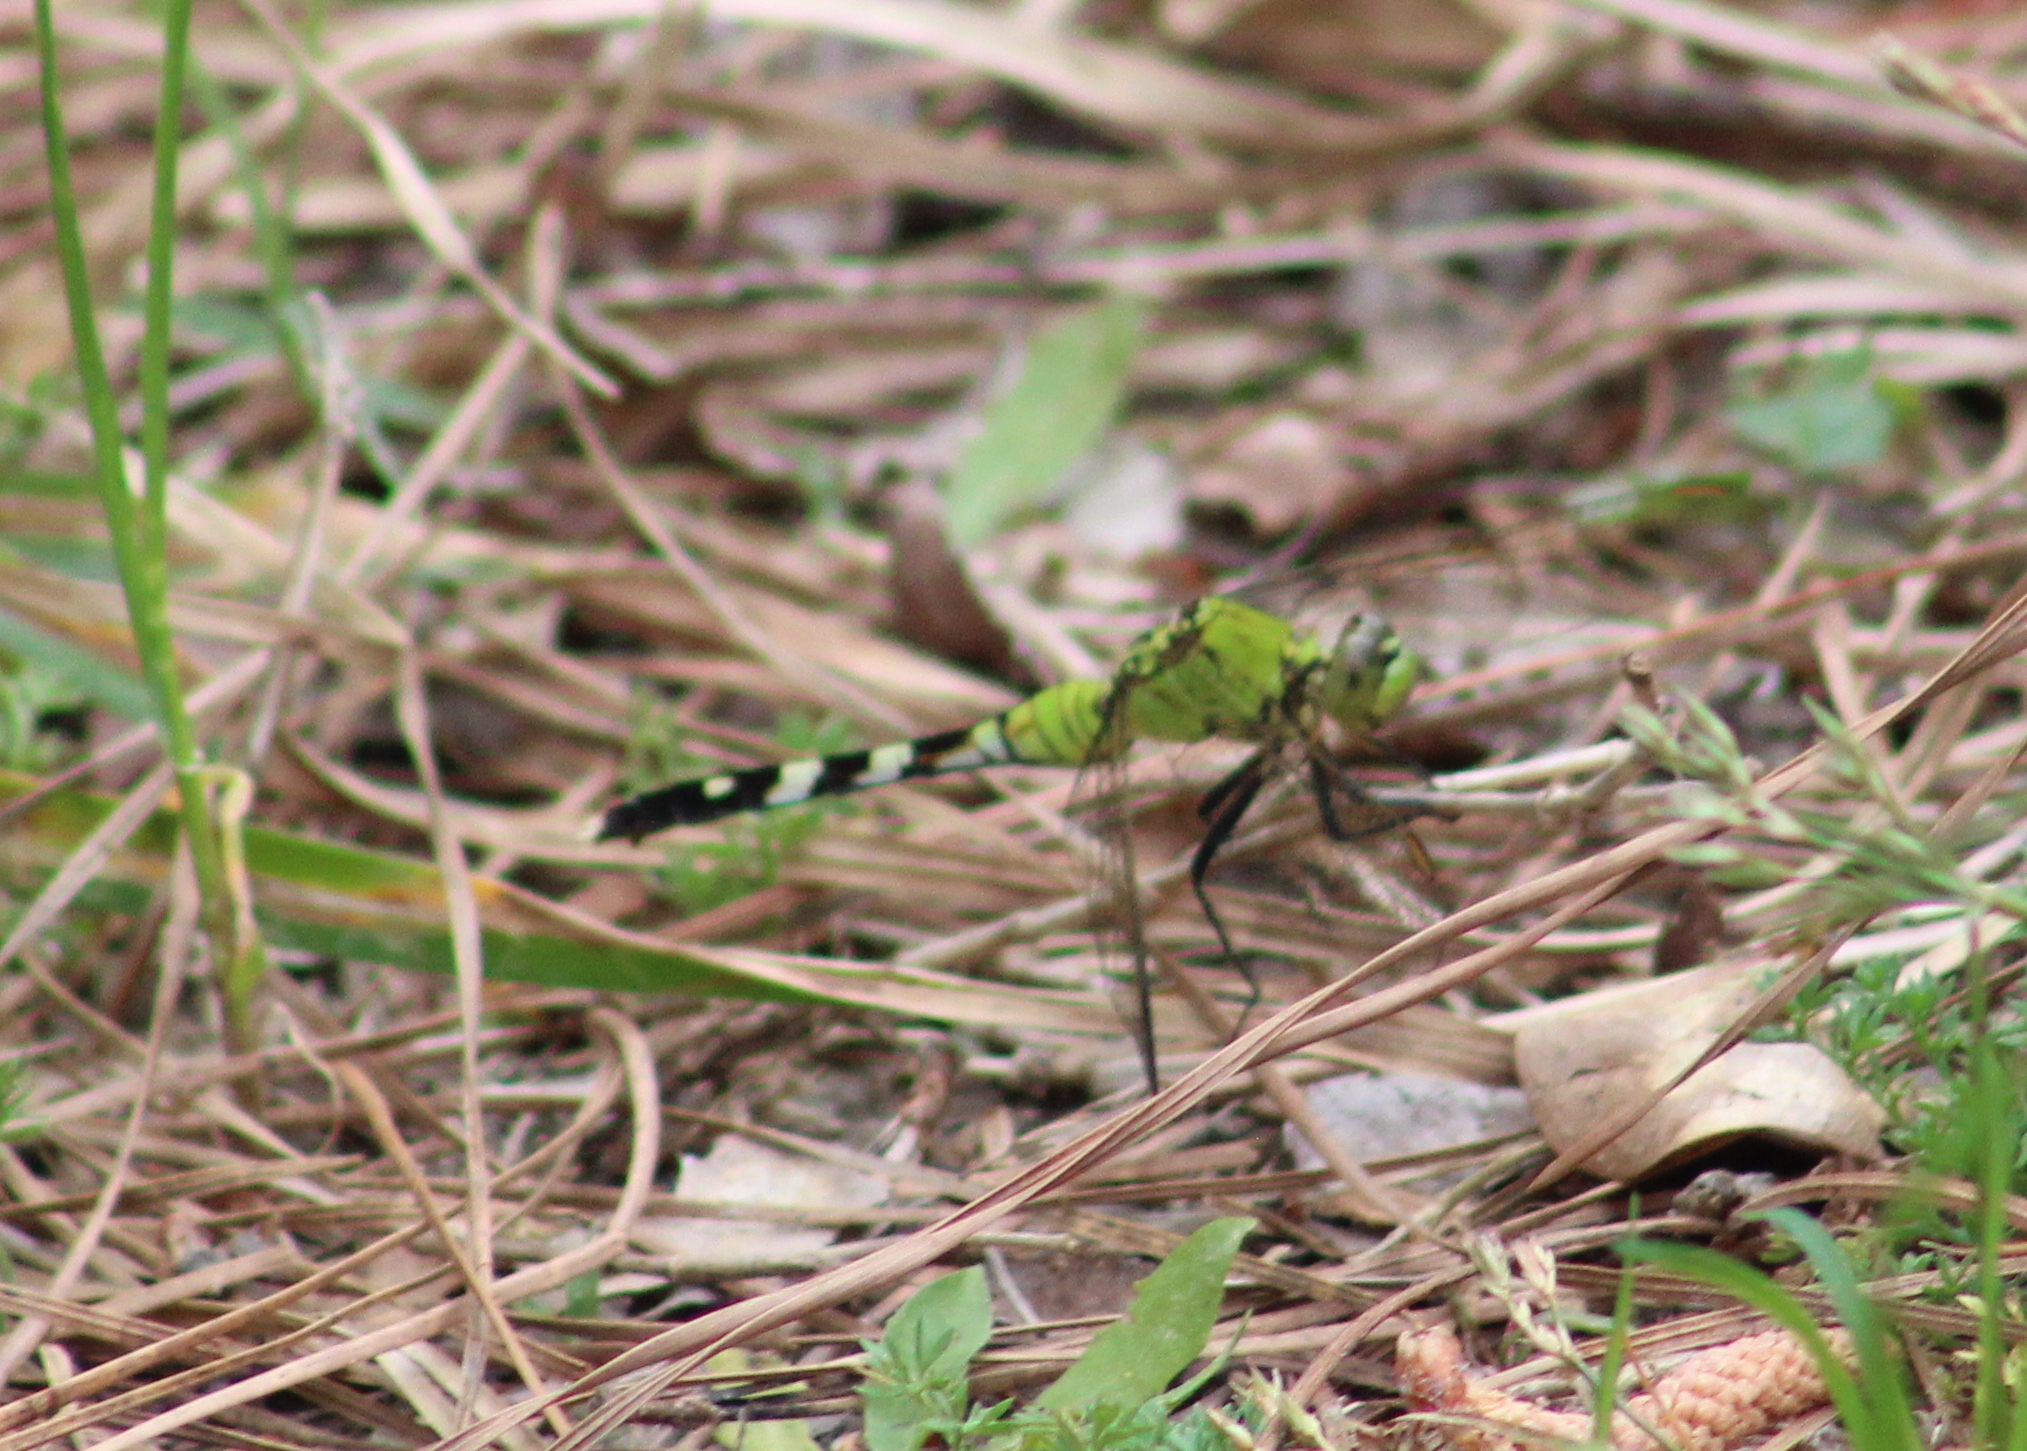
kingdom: Animalia
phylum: Arthropoda
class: Insecta
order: Odonata
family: Libellulidae
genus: Erythemis
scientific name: Erythemis simplicicollis
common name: Eastern pondhawk
